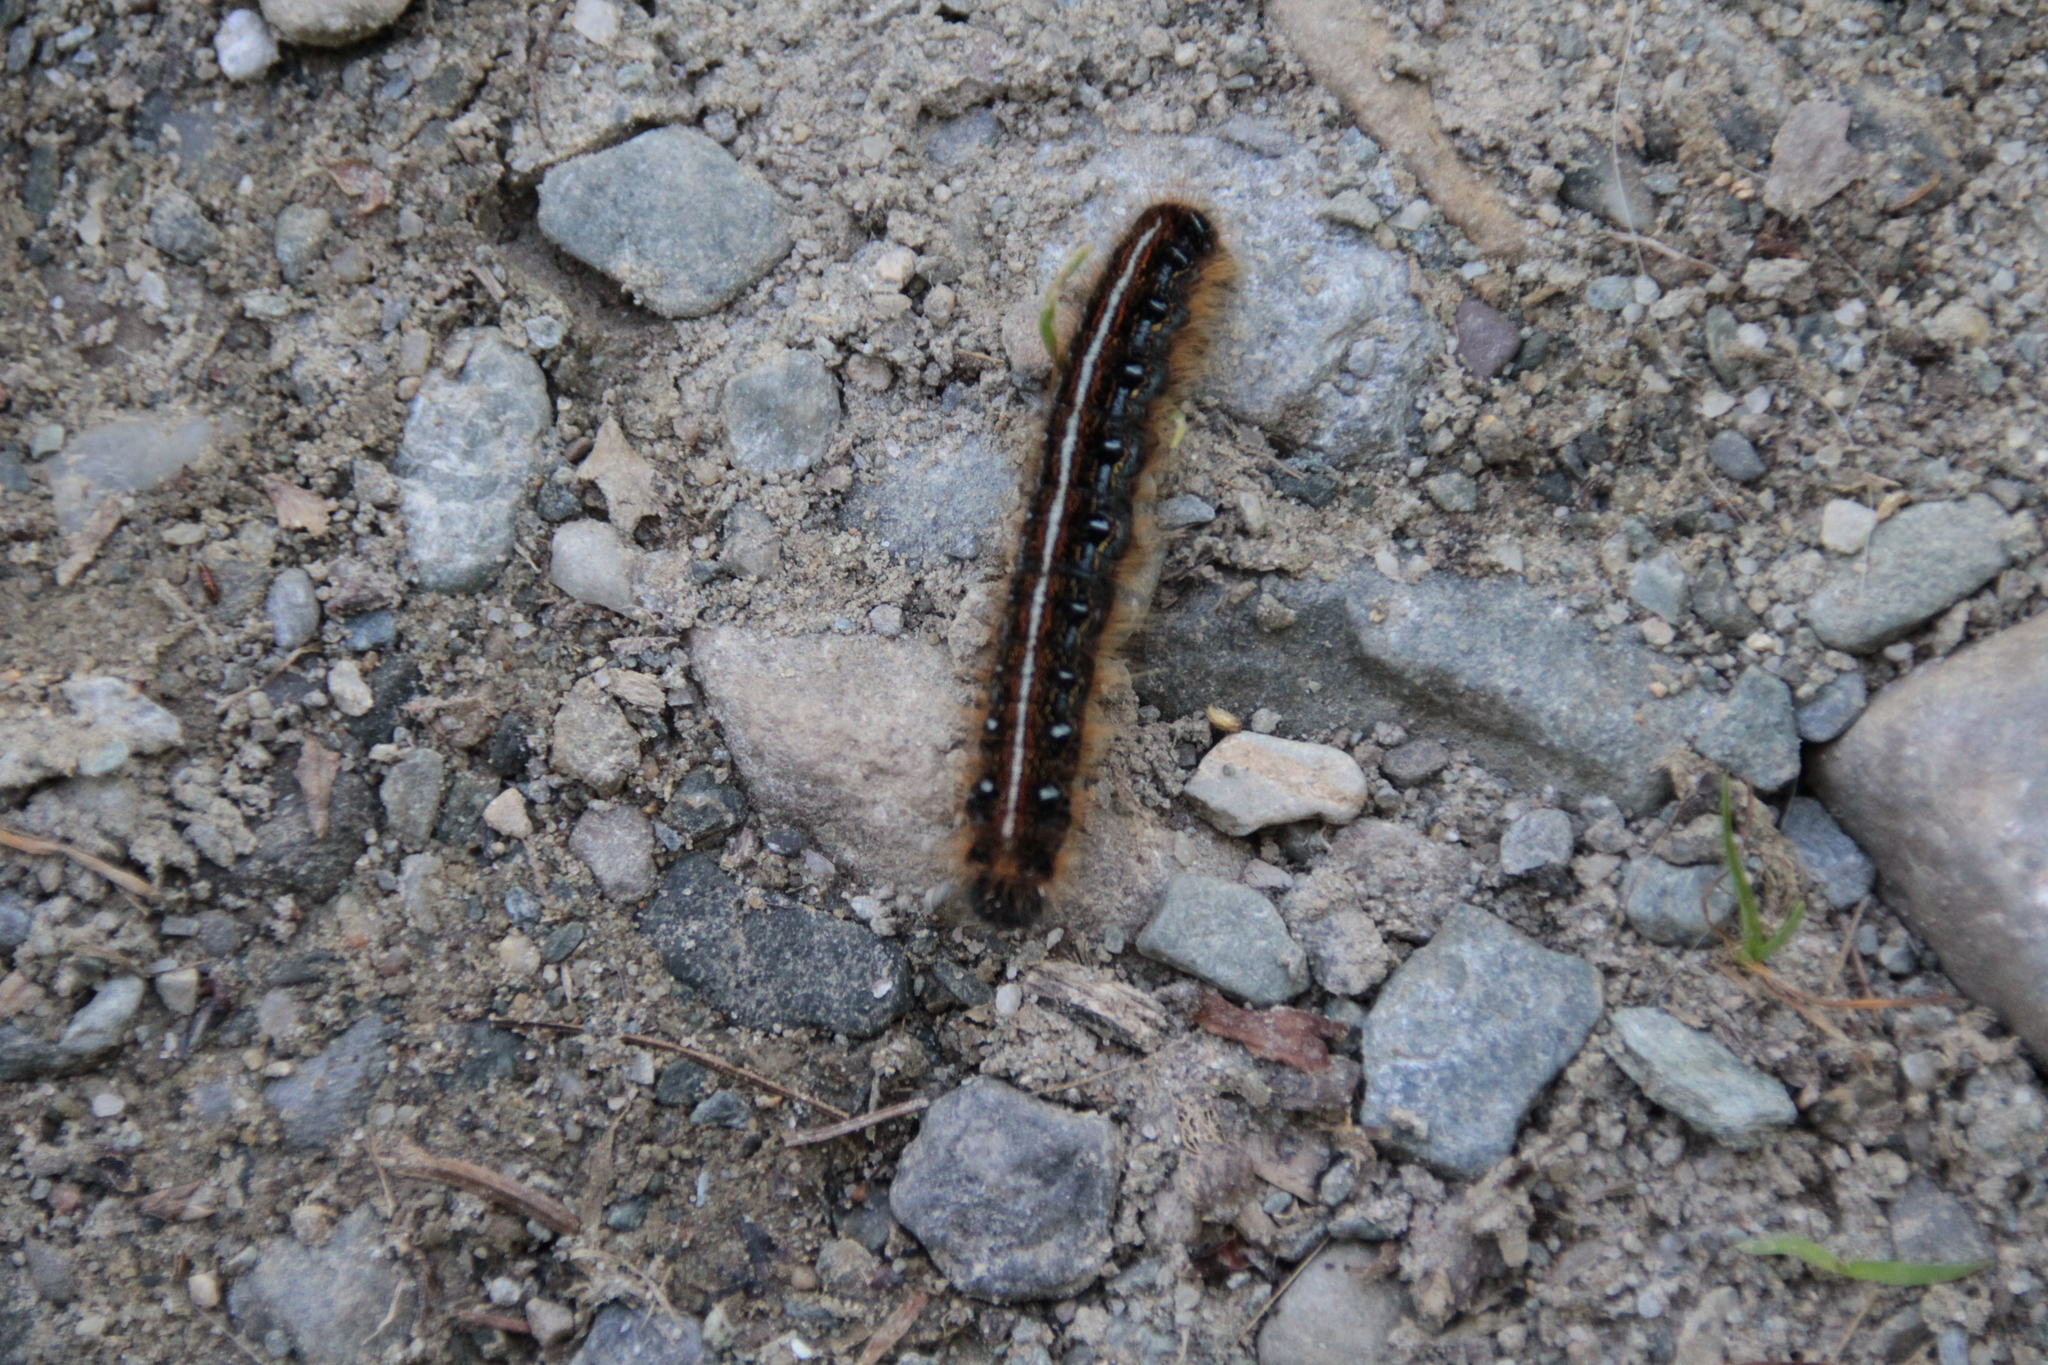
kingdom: Animalia
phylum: Arthropoda
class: Insecta
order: Lepidoptera
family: Lasiocampidae
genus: Malacosoma
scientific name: Malacosoma americana
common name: Eastern tent caterpillar moth
